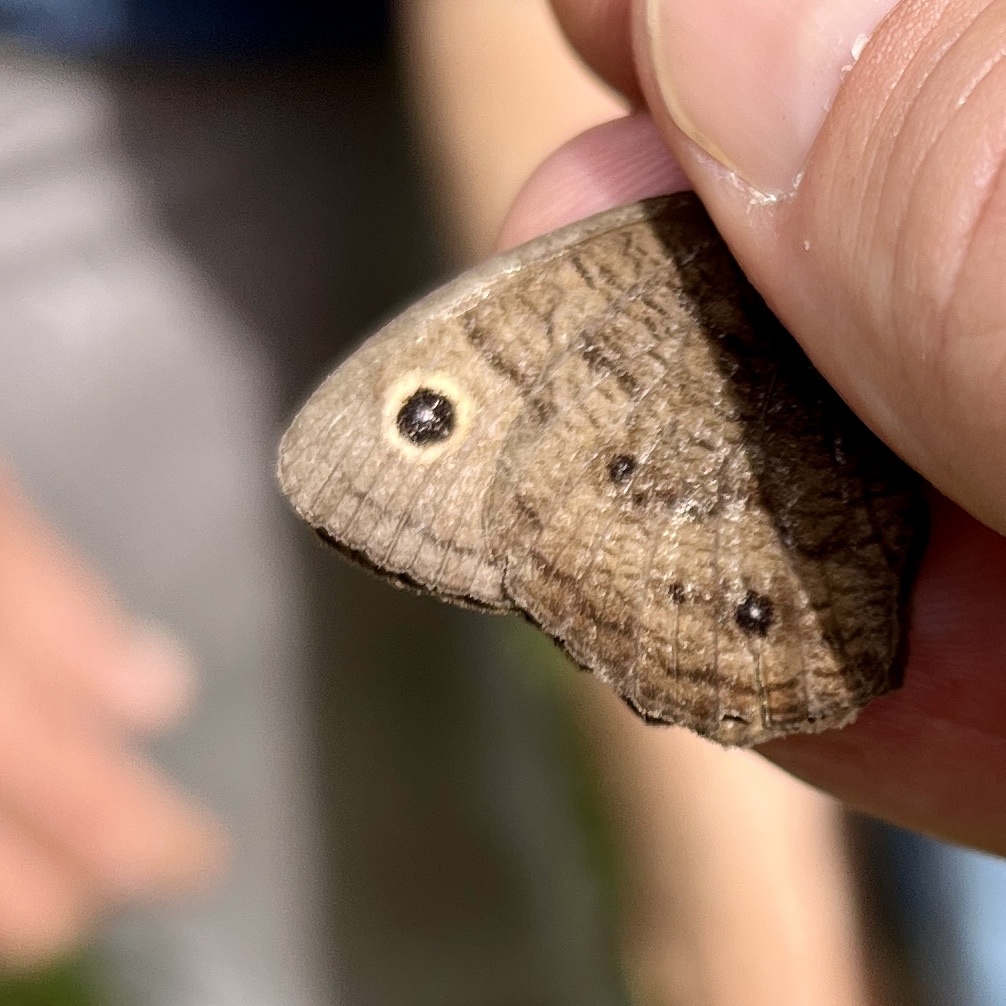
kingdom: Animalia
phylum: Arthropoda
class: Insecta
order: Lepidoptera
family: Nymphalidae
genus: Cercyonis
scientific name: Cercyonis pegala
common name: Common wood-nymph
